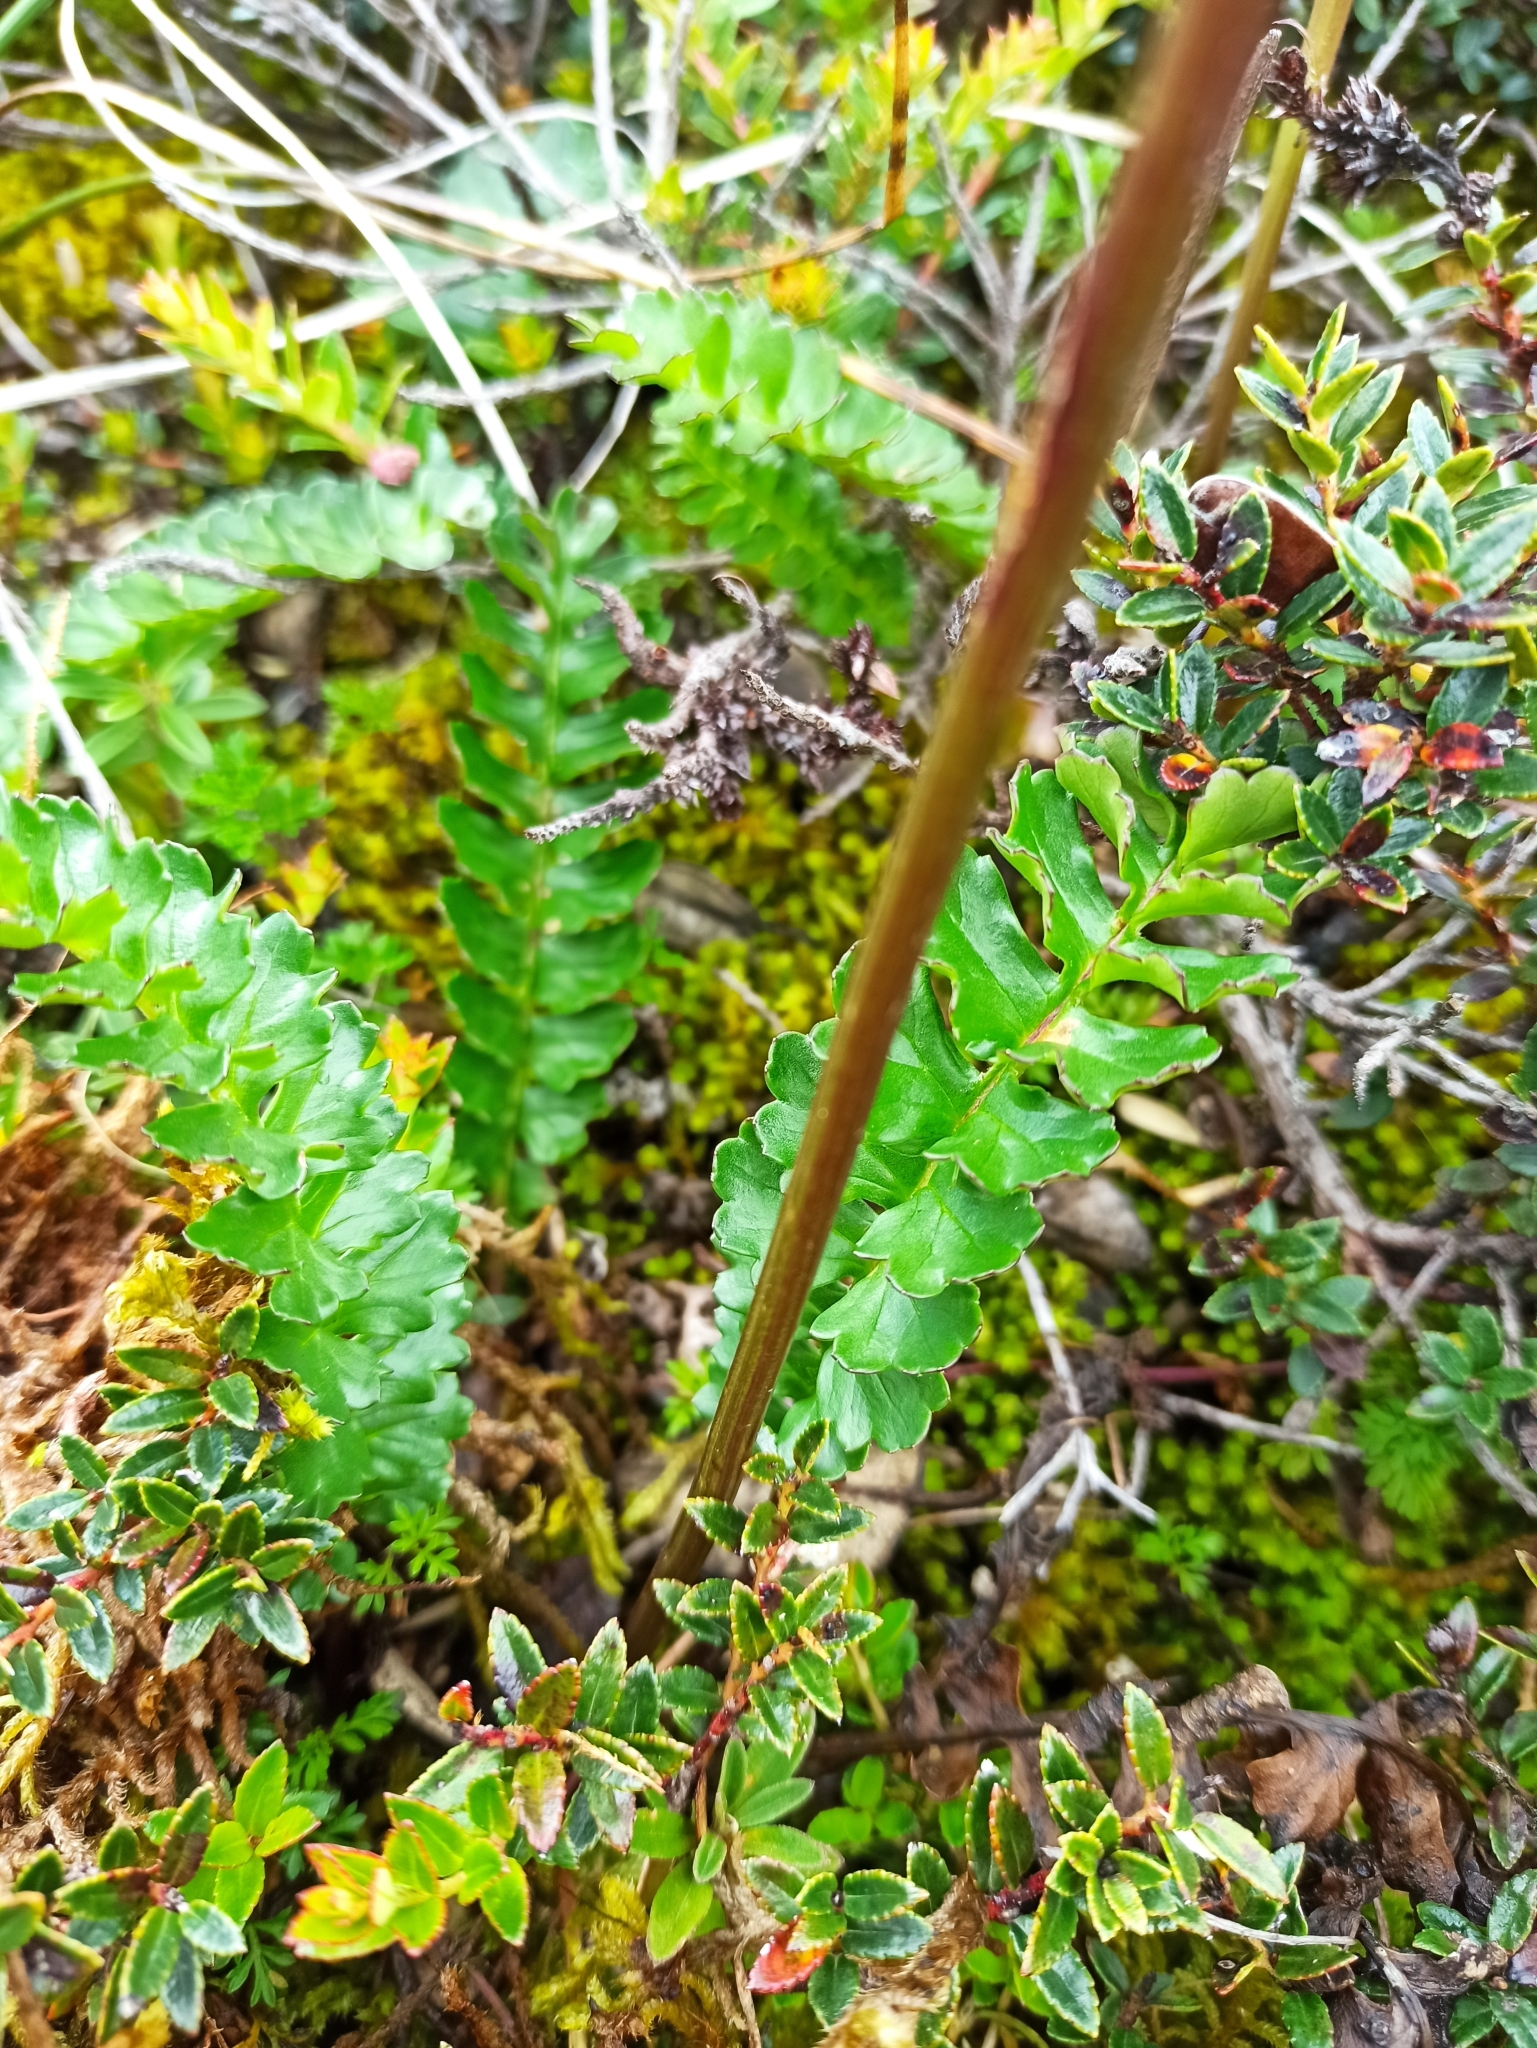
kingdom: Plantae
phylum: Tracheophyta
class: Magnoliopsida
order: Asterales
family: Asteraceae
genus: Dorobaea
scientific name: Dorobaea pimpinellifolia
